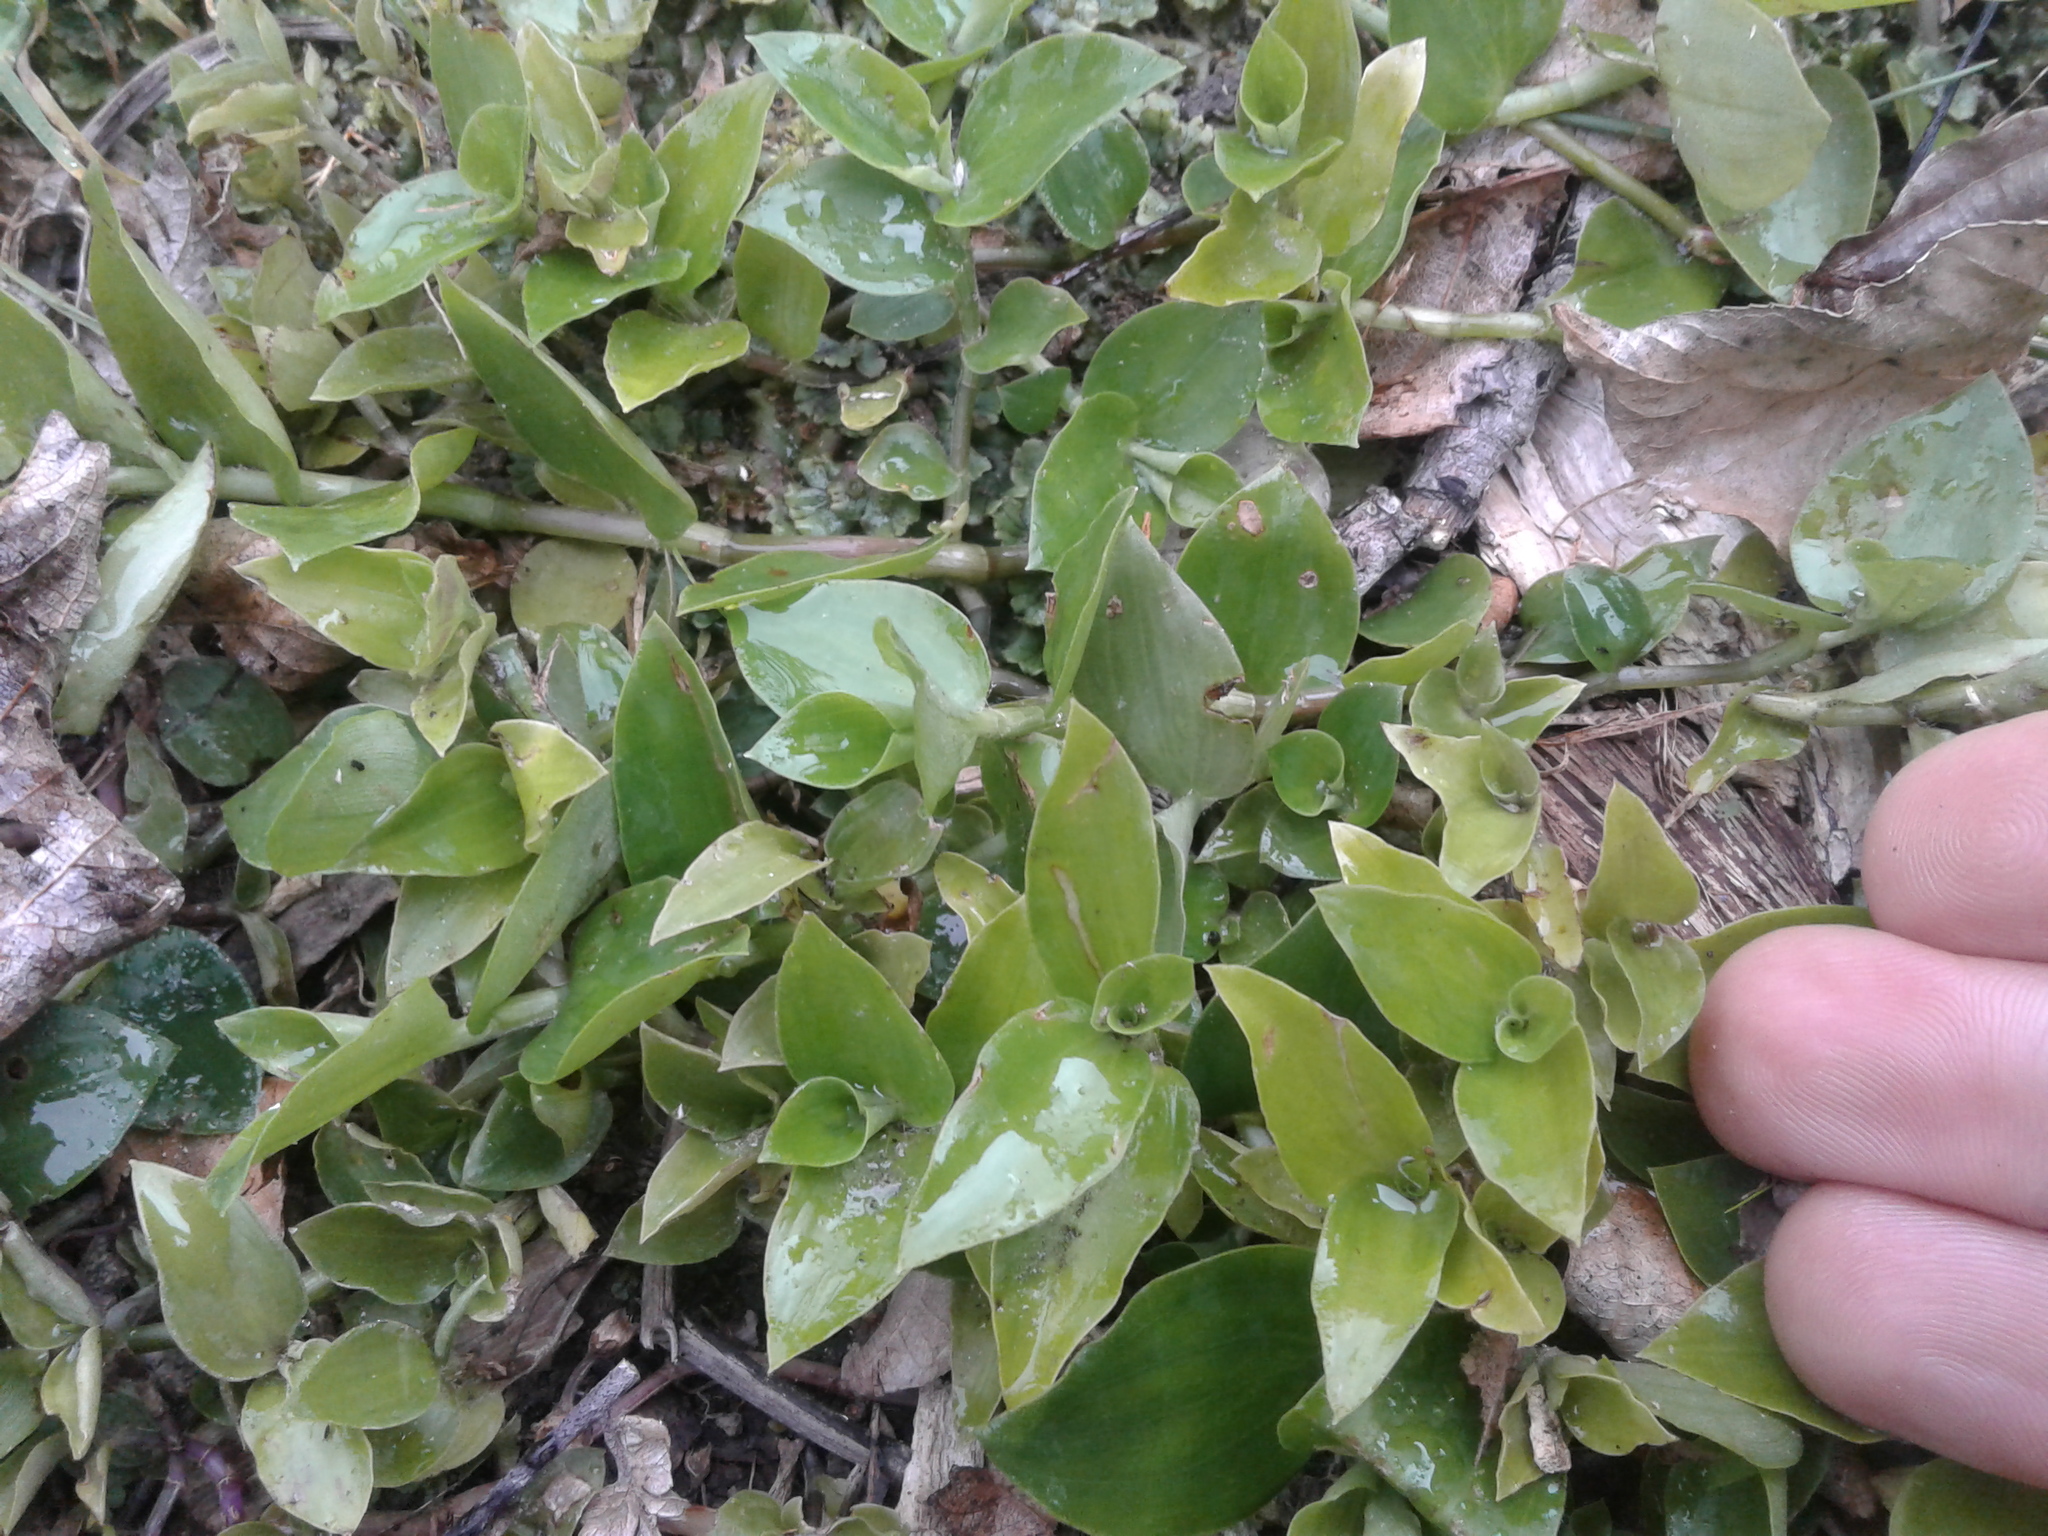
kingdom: Plantae
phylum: Tracheophyta
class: Liliopsida
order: Commelinales
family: Commelinaceae
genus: Tradescantia
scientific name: Tradescantia fluminensis
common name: Wandering-jew
